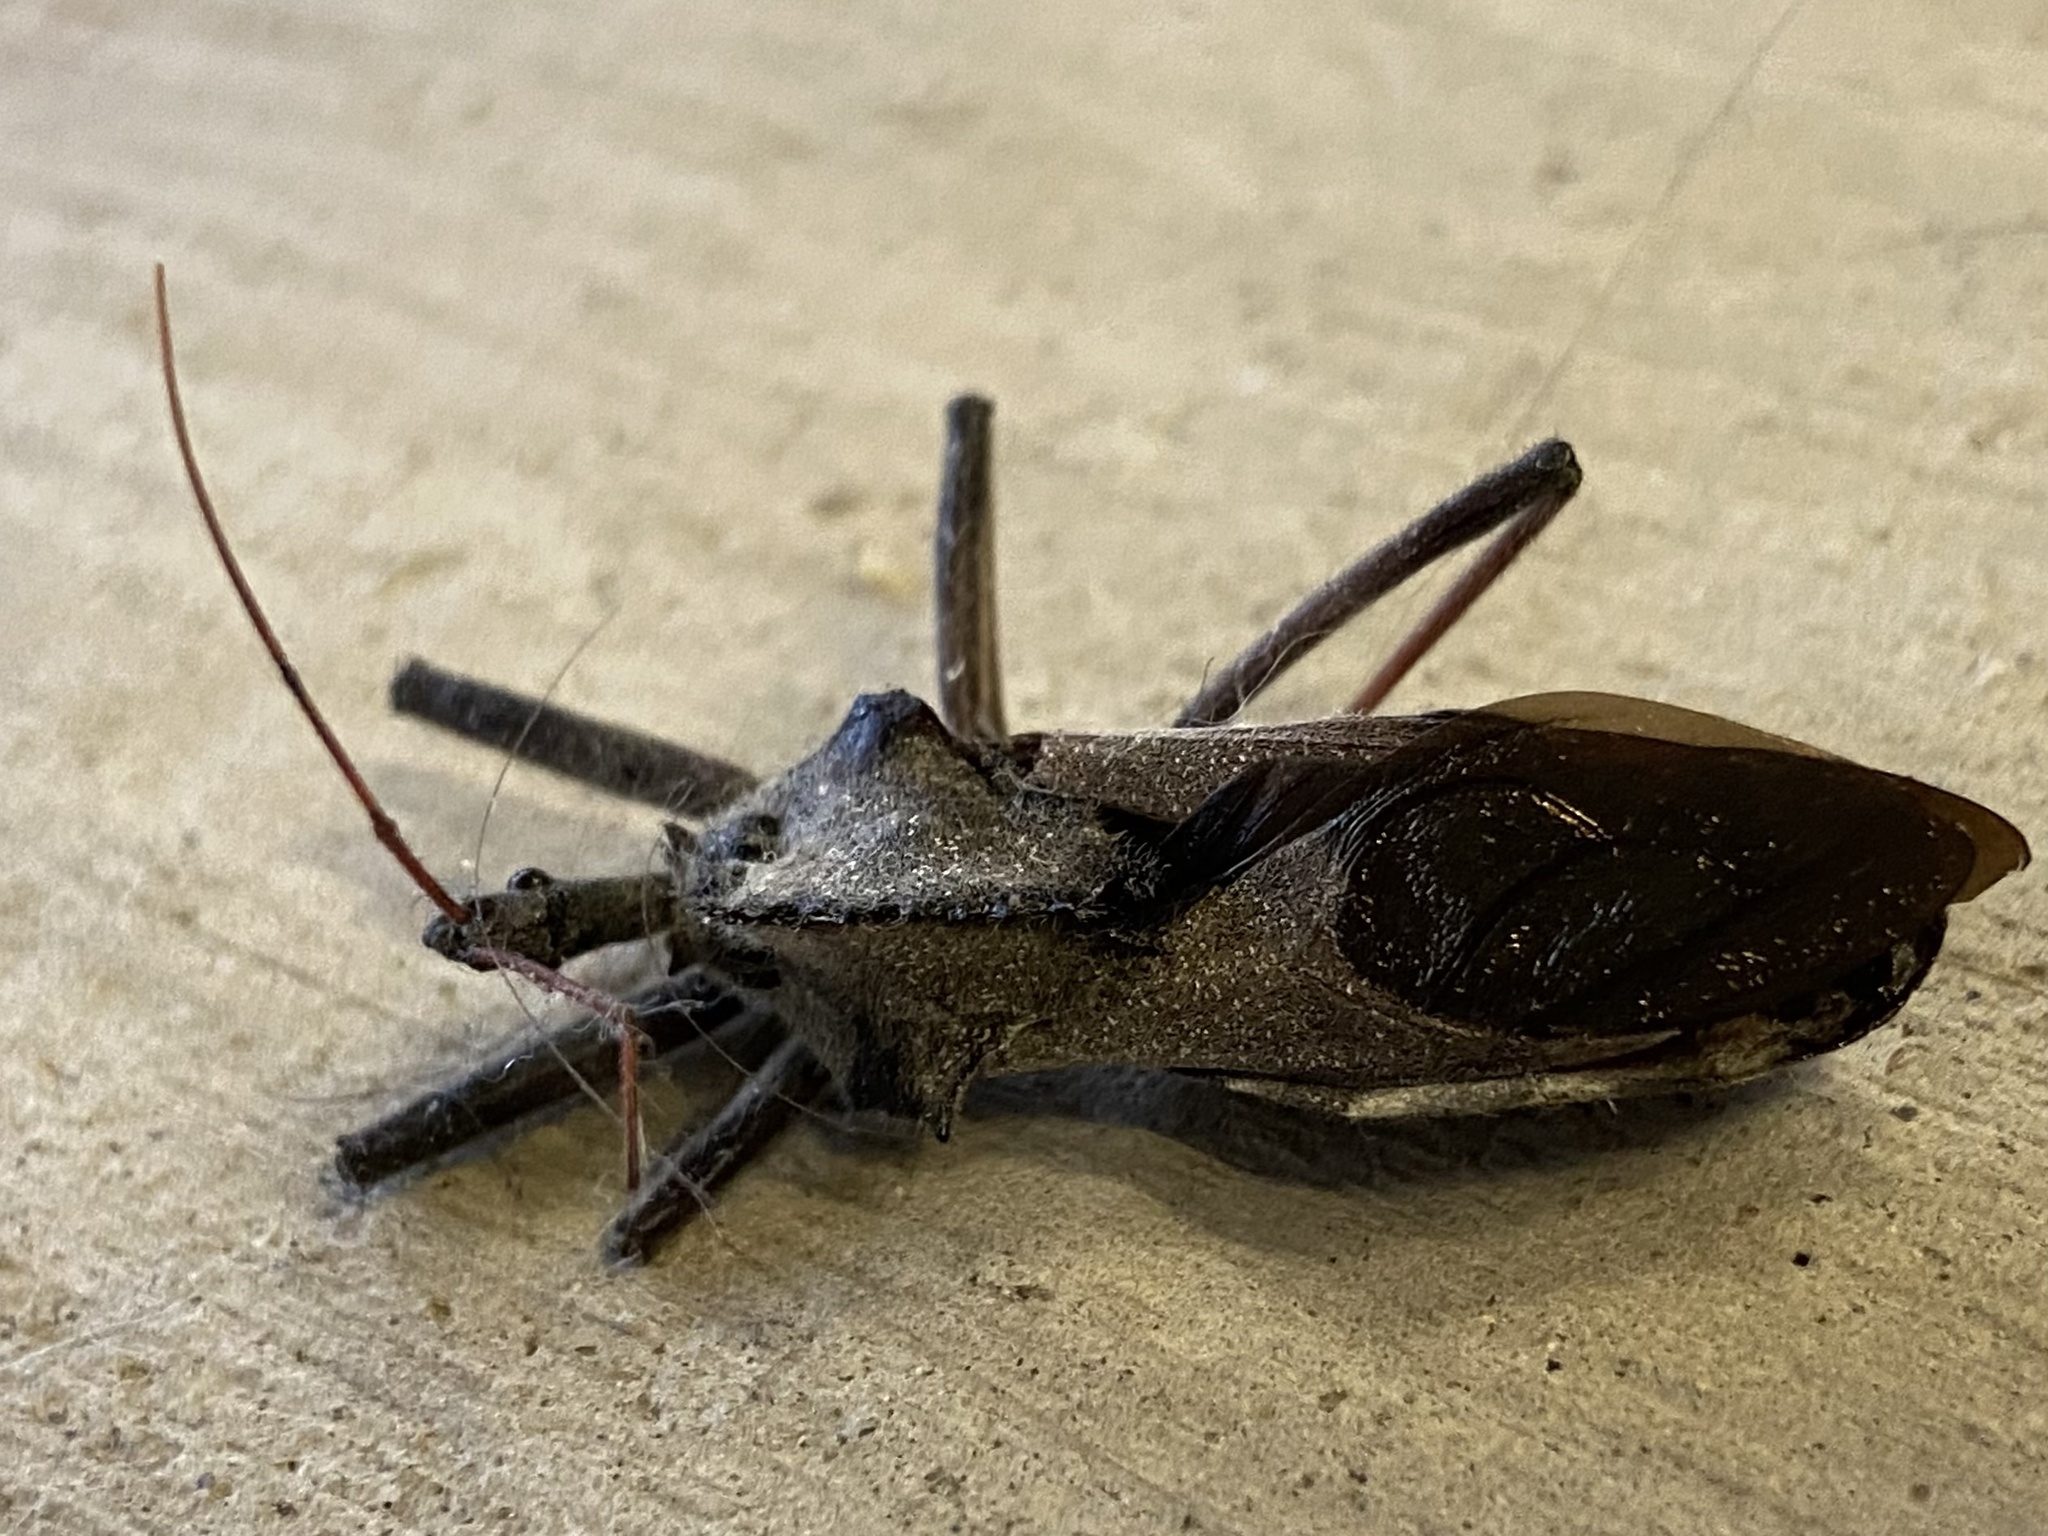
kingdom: Animalia
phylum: Arthropoda
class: Insecta
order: Hemiptera
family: Reduviidae
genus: Arilus
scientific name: Arilus cristatus
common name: North american wheel bug
